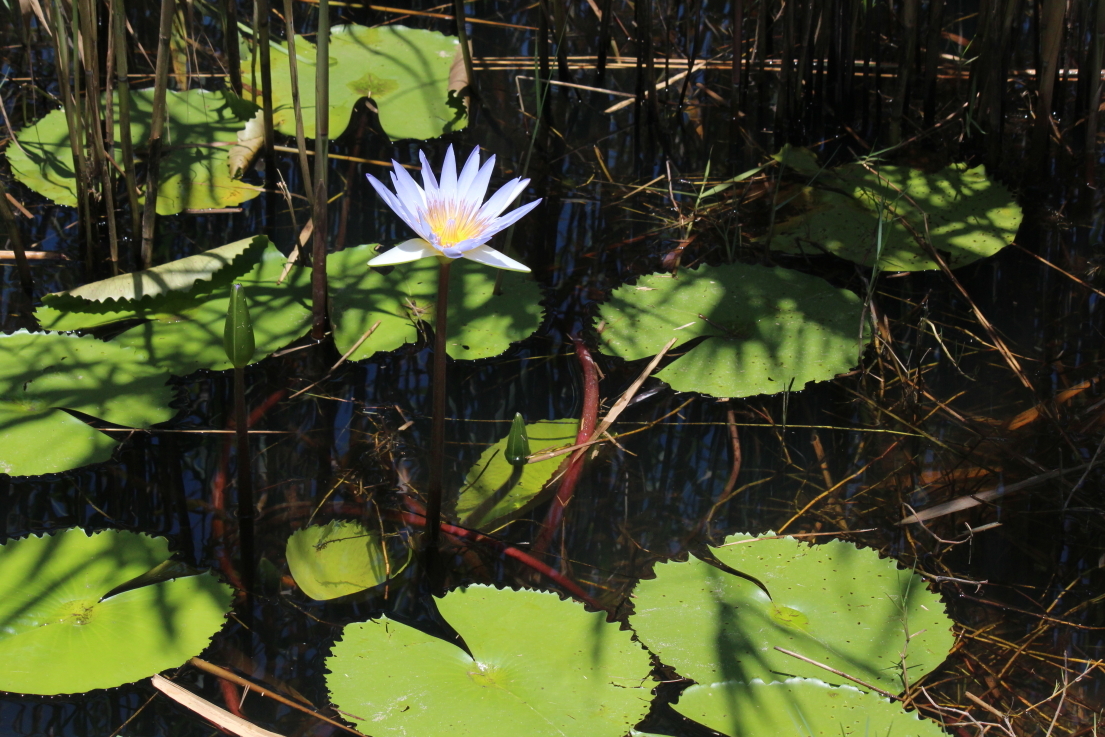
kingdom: Plantae
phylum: Tracheophyta
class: Magnoliopsida
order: Nymphaeales
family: Nymphaeaceae
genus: Nymphaea
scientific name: Nymphaea nouchali
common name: Blue lotus
